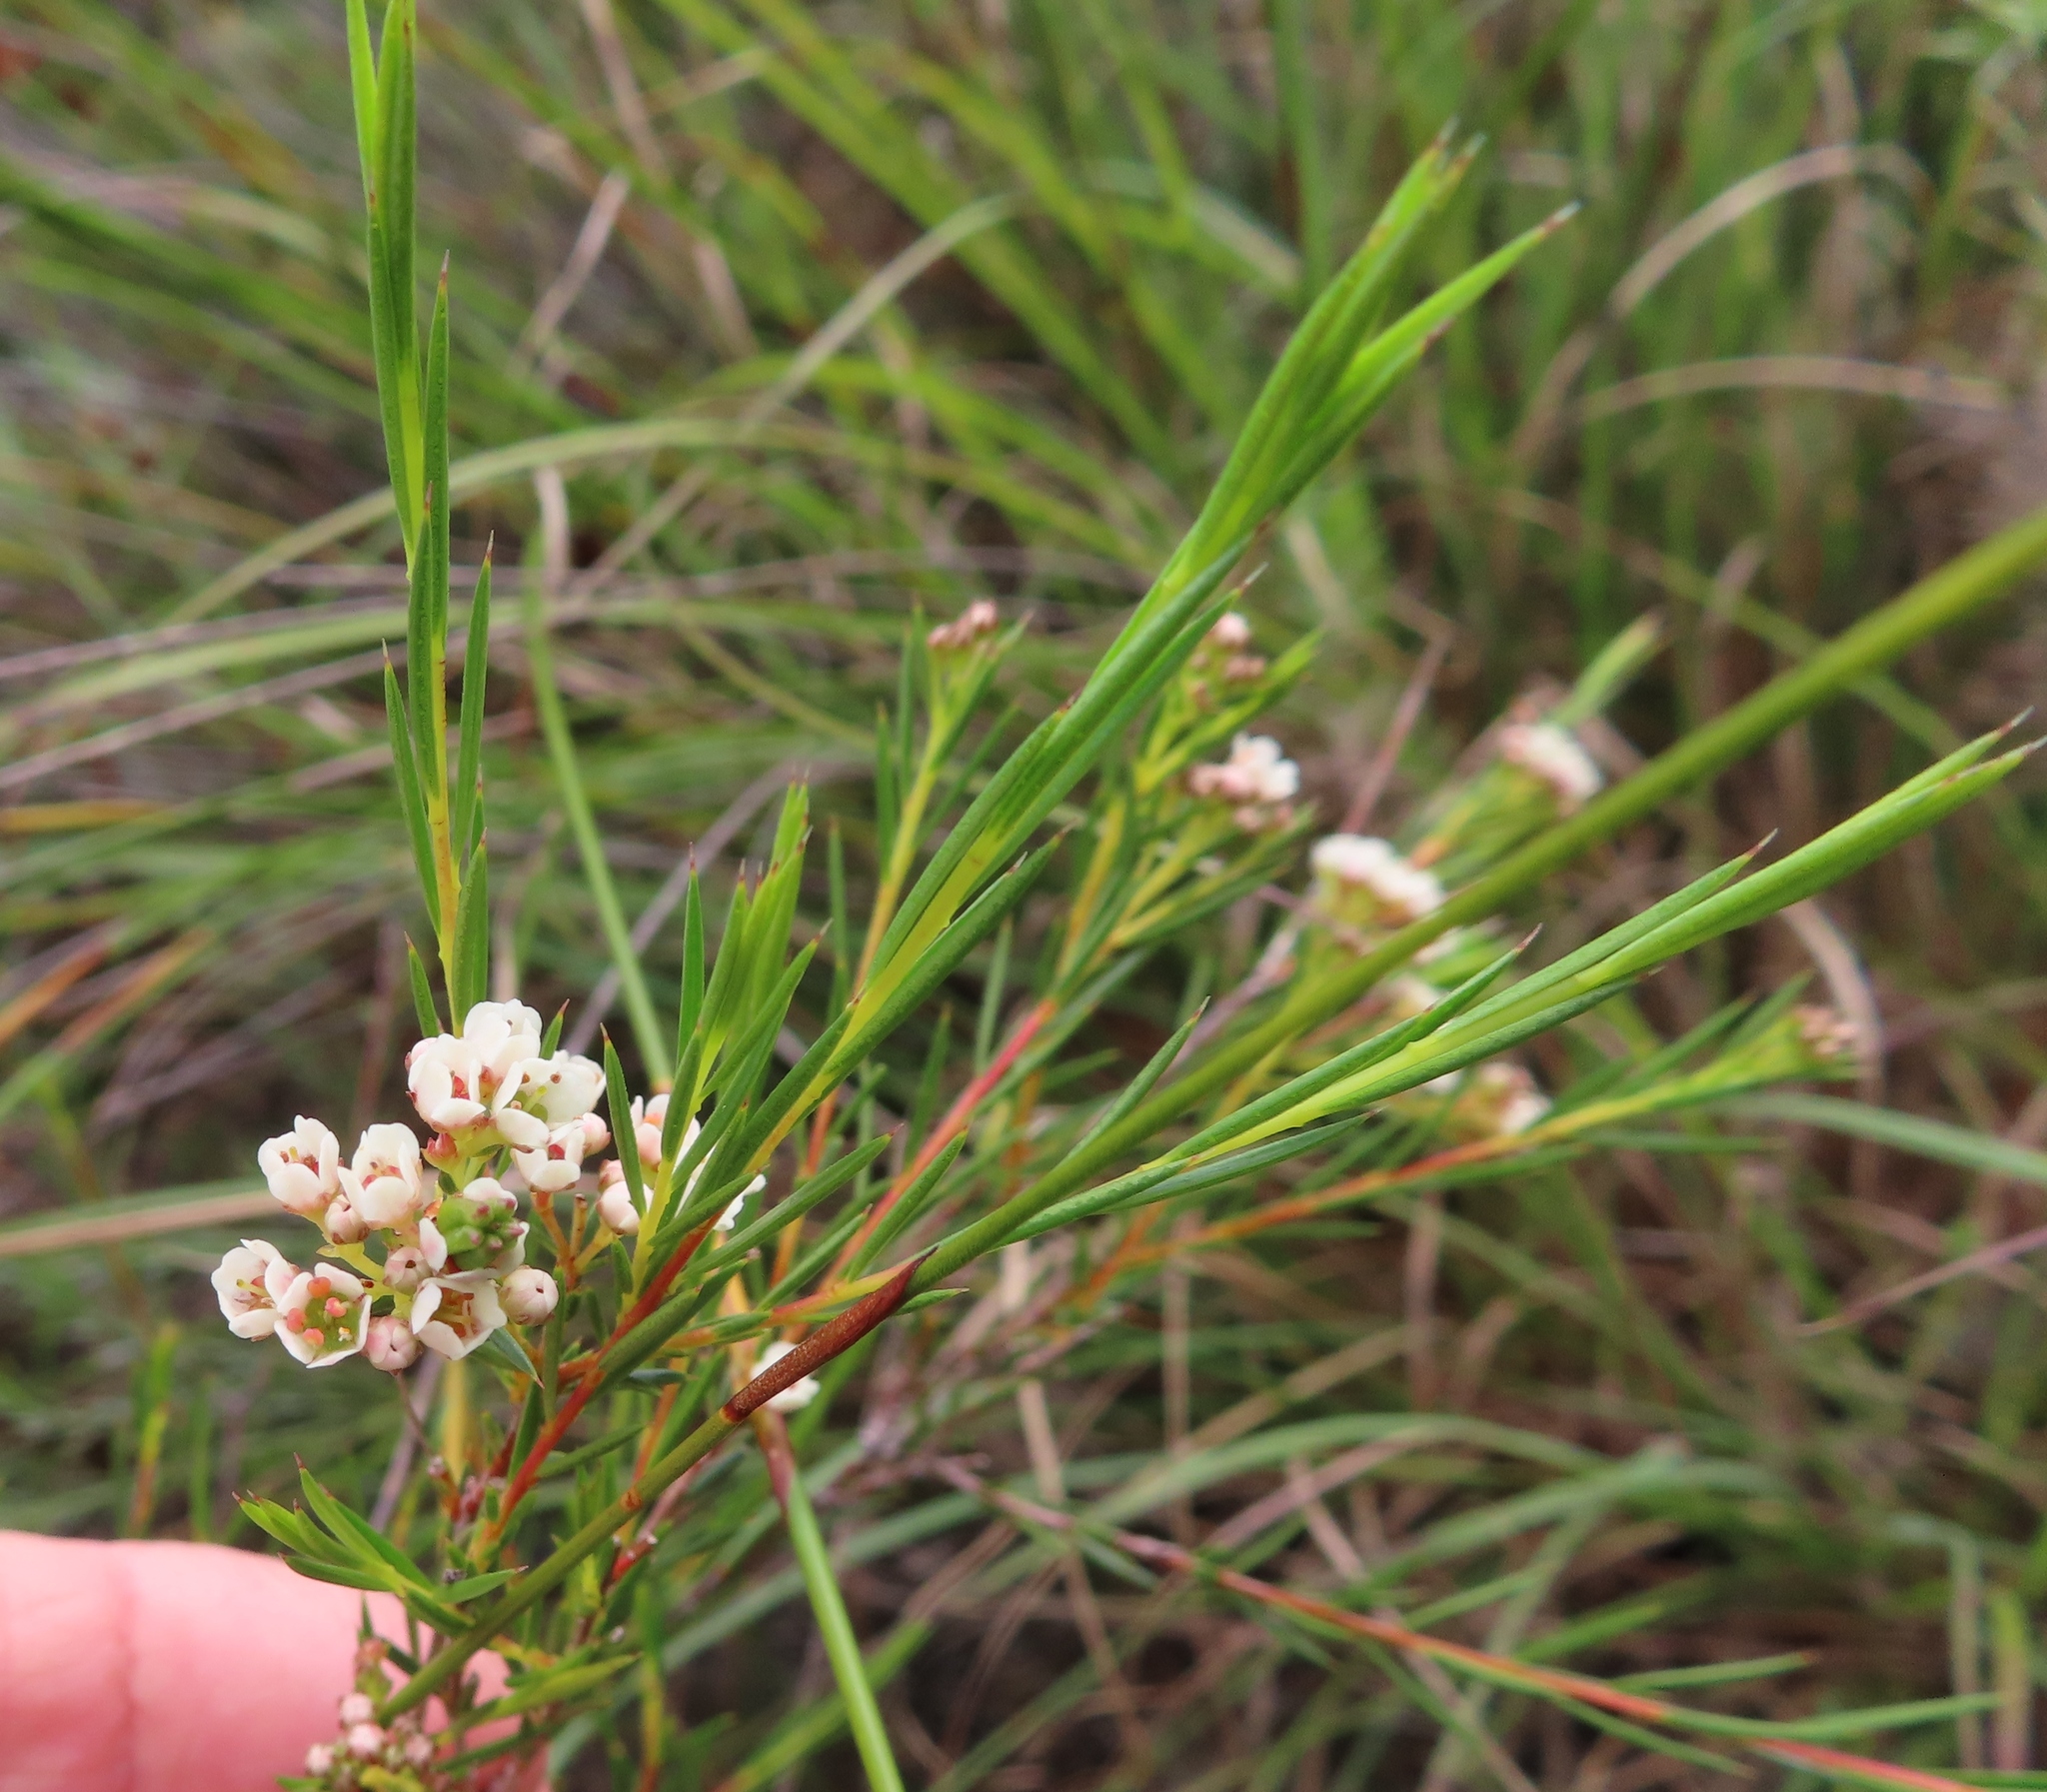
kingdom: Plantae
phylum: Tracheophyta
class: Magnoliopsida
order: Sapindales
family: Rutaceae
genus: Diosma
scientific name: Diosma hirsuta
